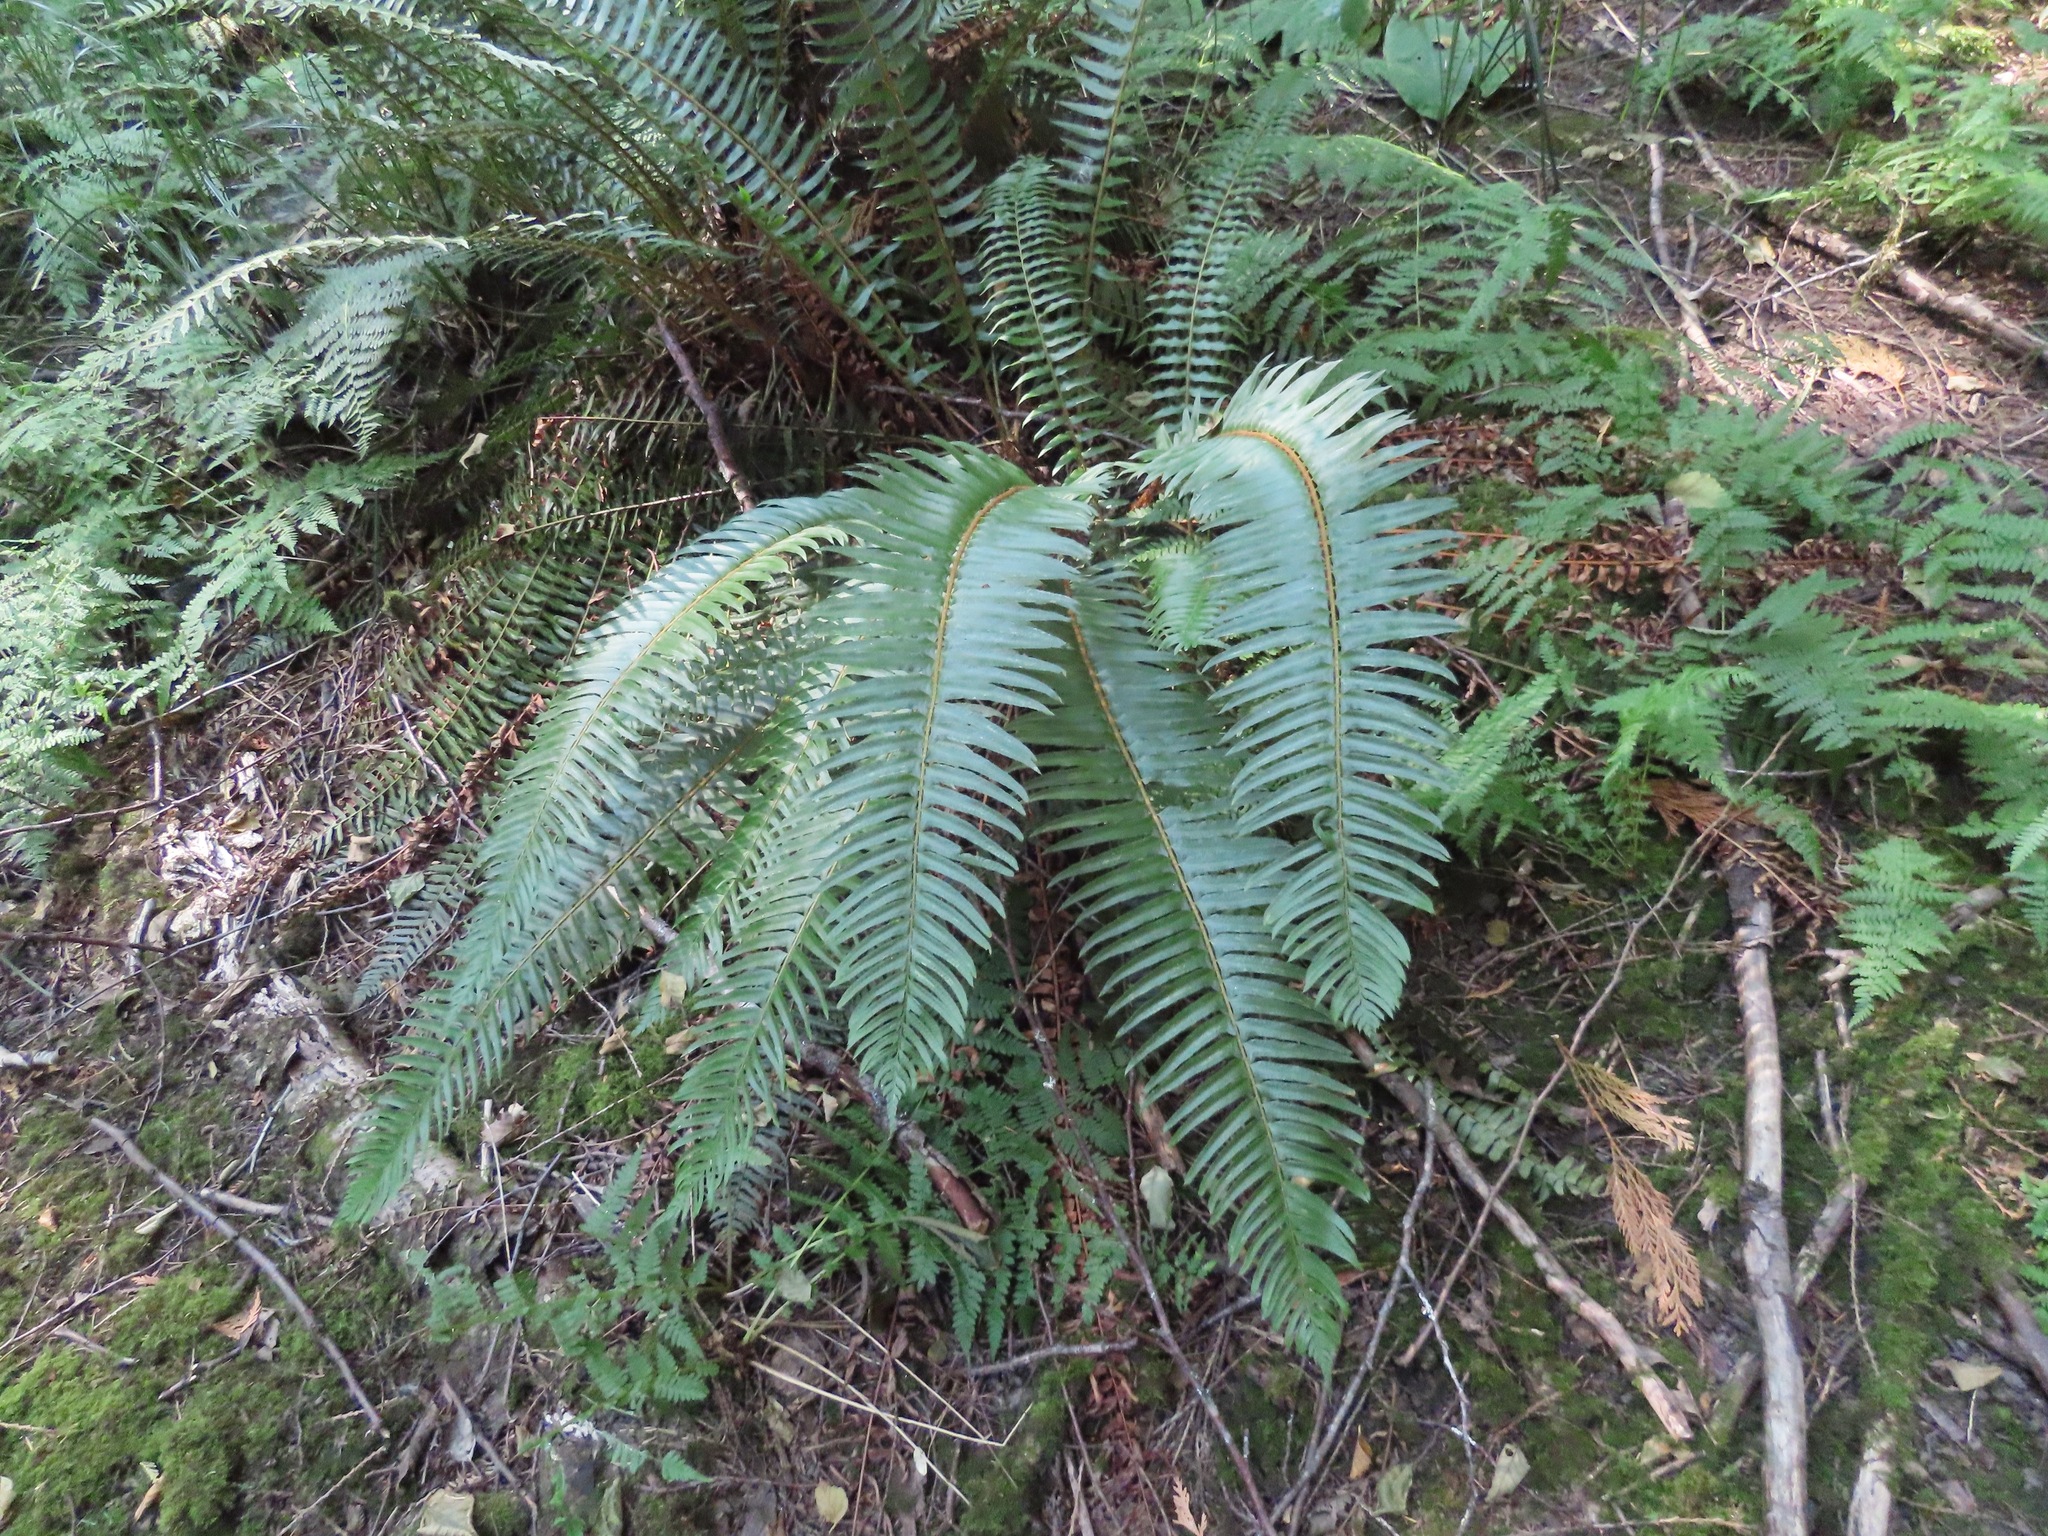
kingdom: Plantae
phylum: Tracheophyta
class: Polypodiopsida
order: Polypodiales
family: Dryopteridaceae
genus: Polystichum
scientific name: Polystichum munitum
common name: Western sword-fern
